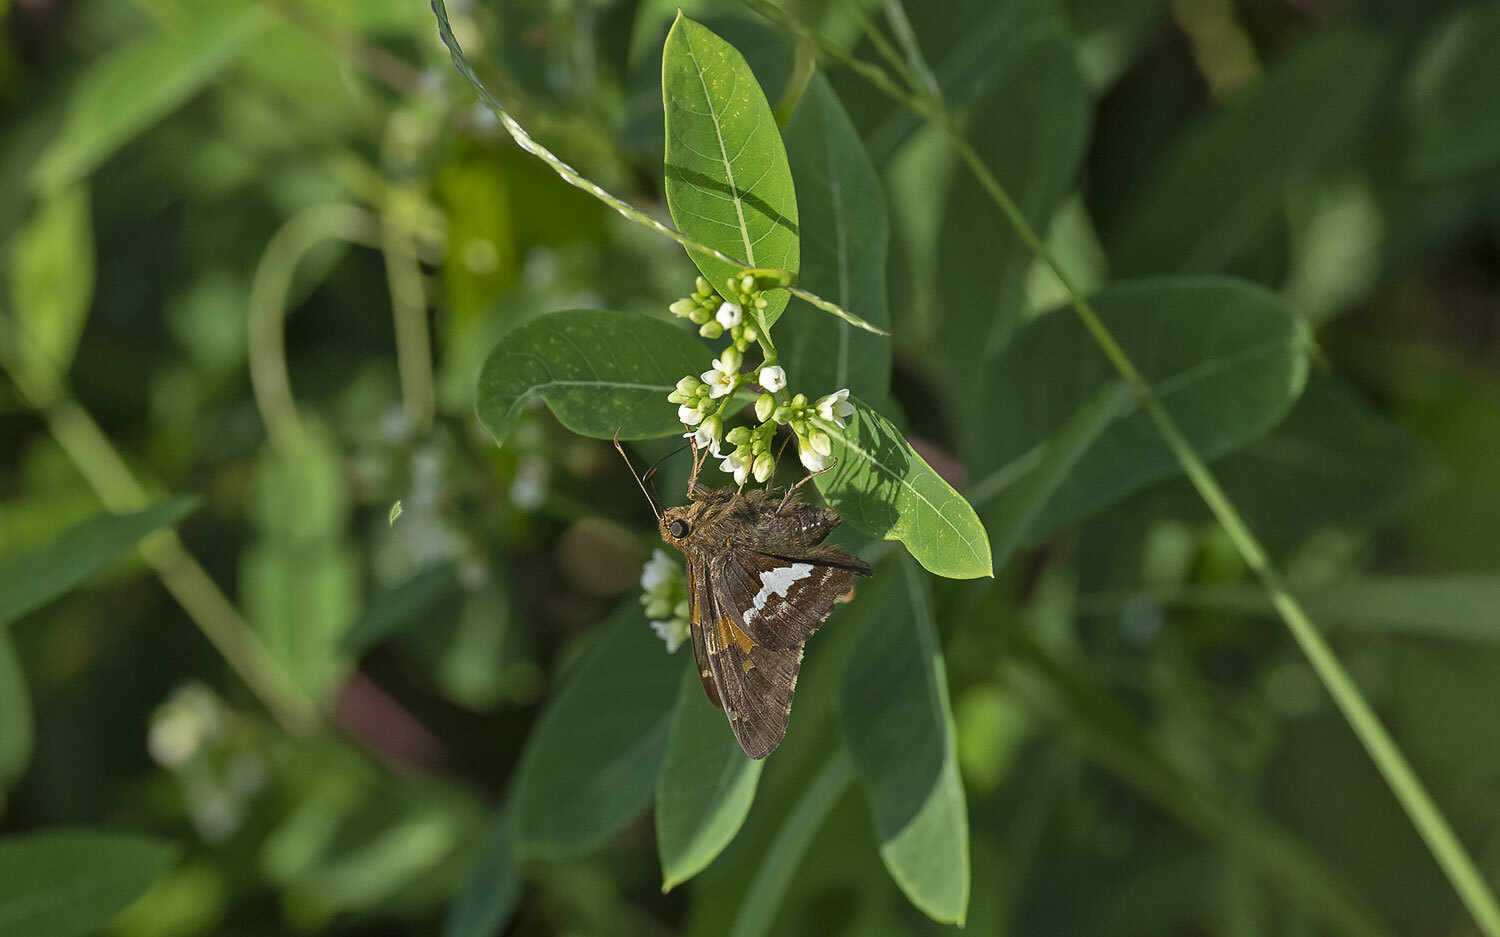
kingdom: Animalia
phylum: Arthropoda
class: Insecta
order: Lepidoptera
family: Hesperiidae
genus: Epargyreus
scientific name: Epargyreus clarus
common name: Silver-spotted skipper
